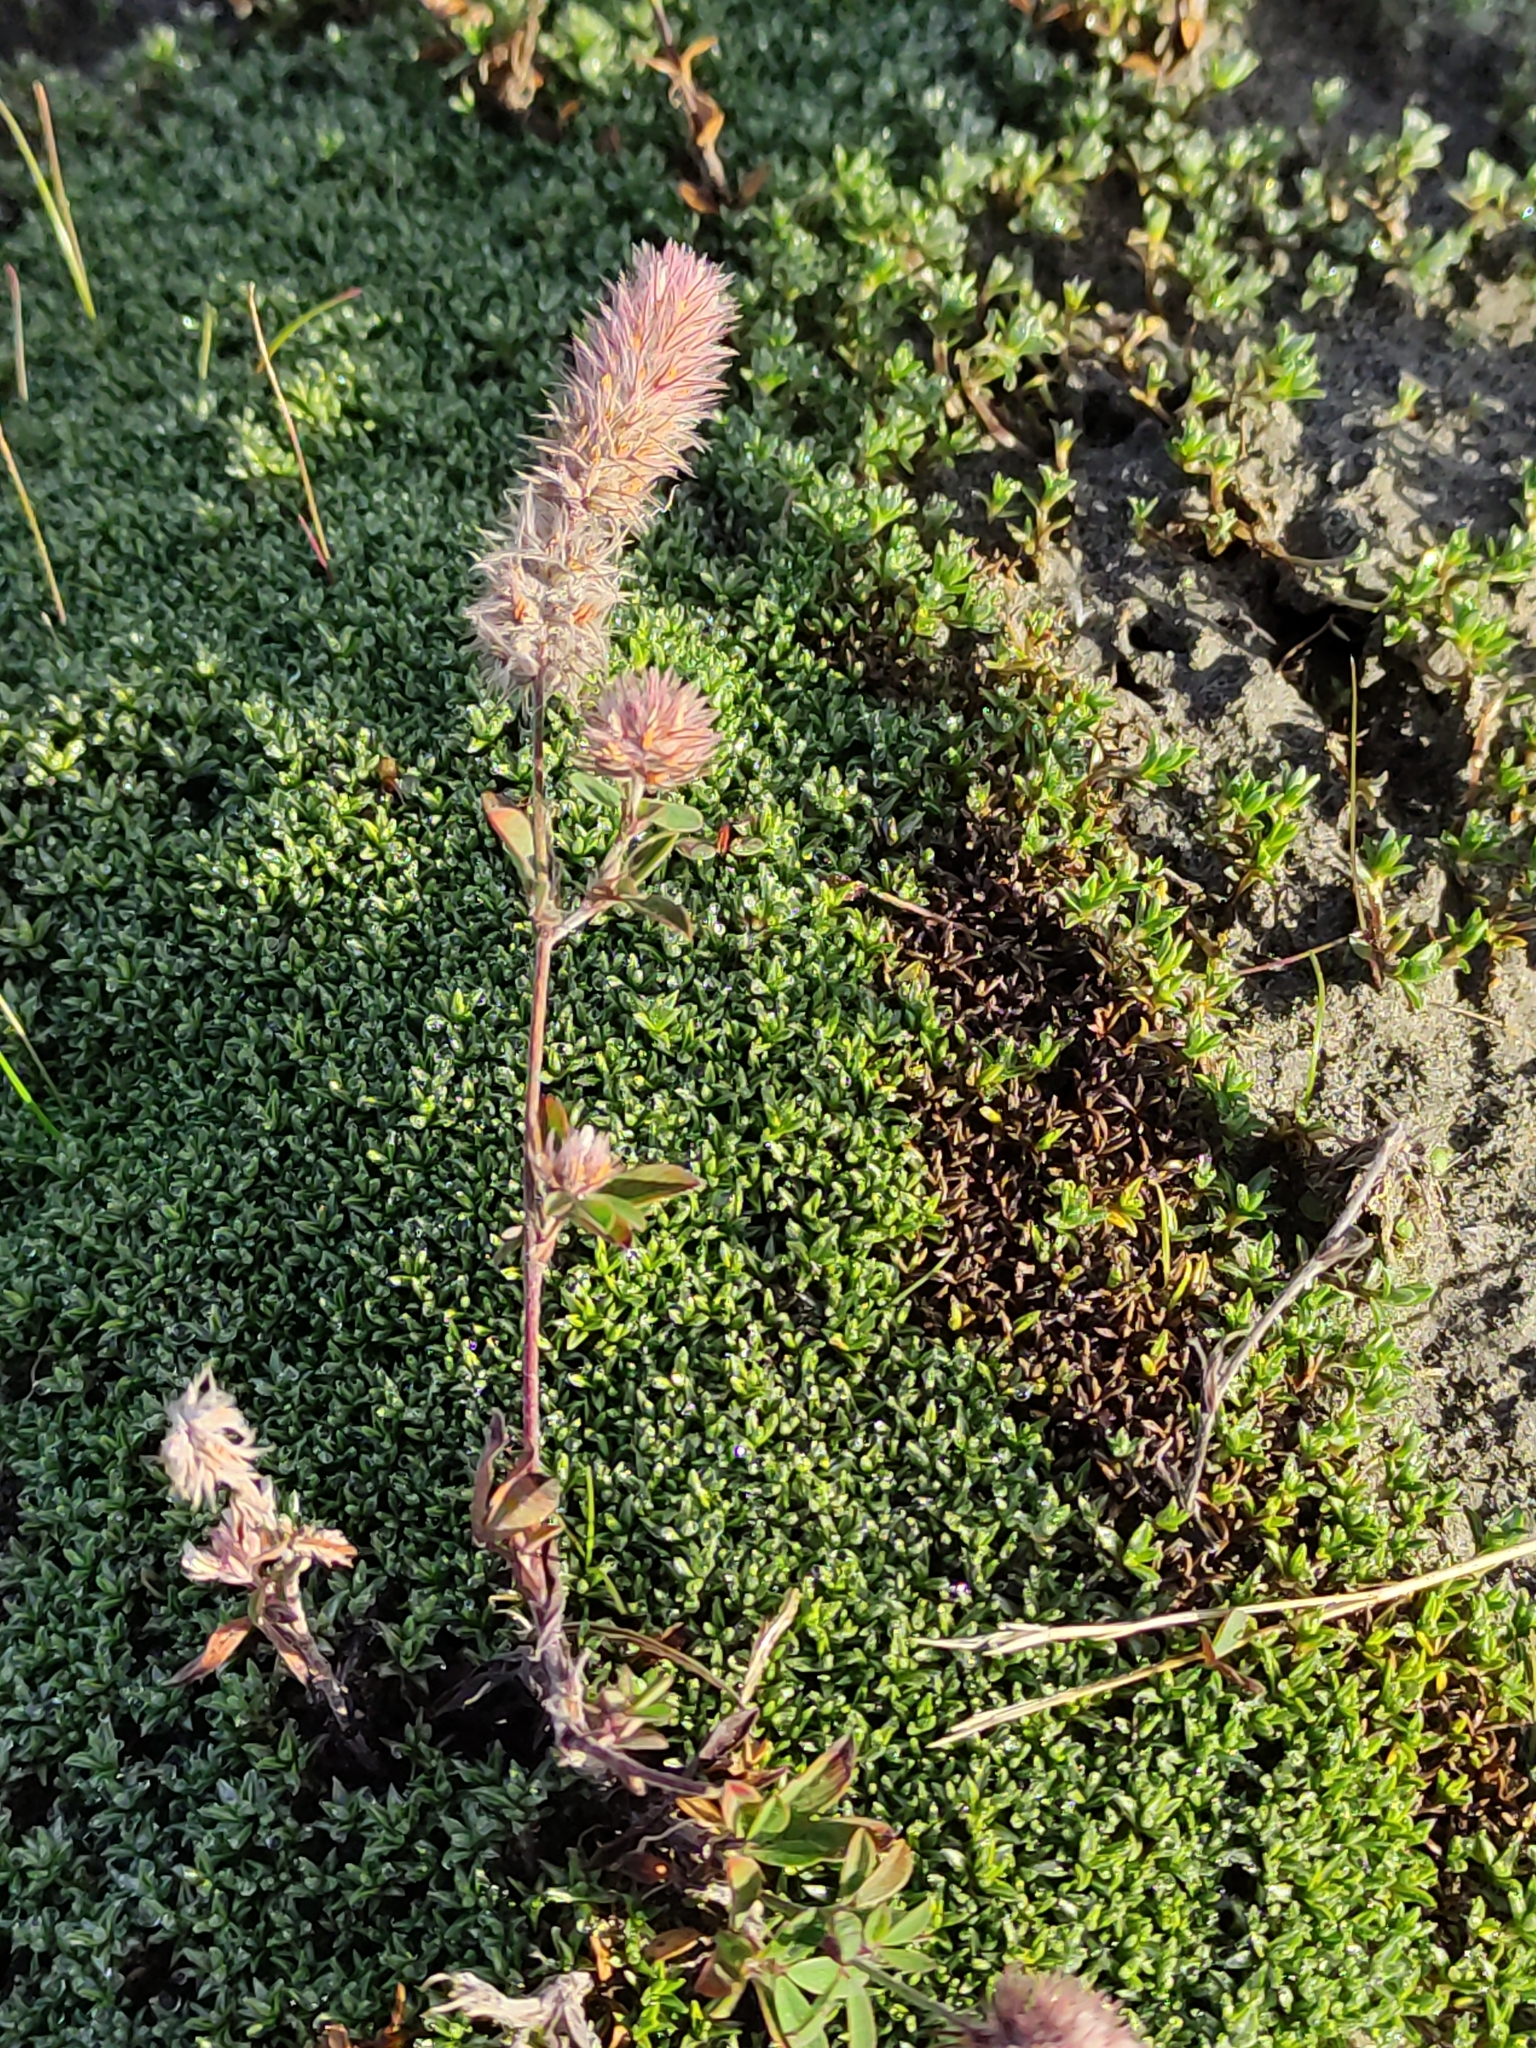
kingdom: Plantae
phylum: Tracheophyta
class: Magnoliopsida
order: Fabales
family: Fabaceae
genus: Trifolium
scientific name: Trifolium arvense
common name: Hare's-foot clover
